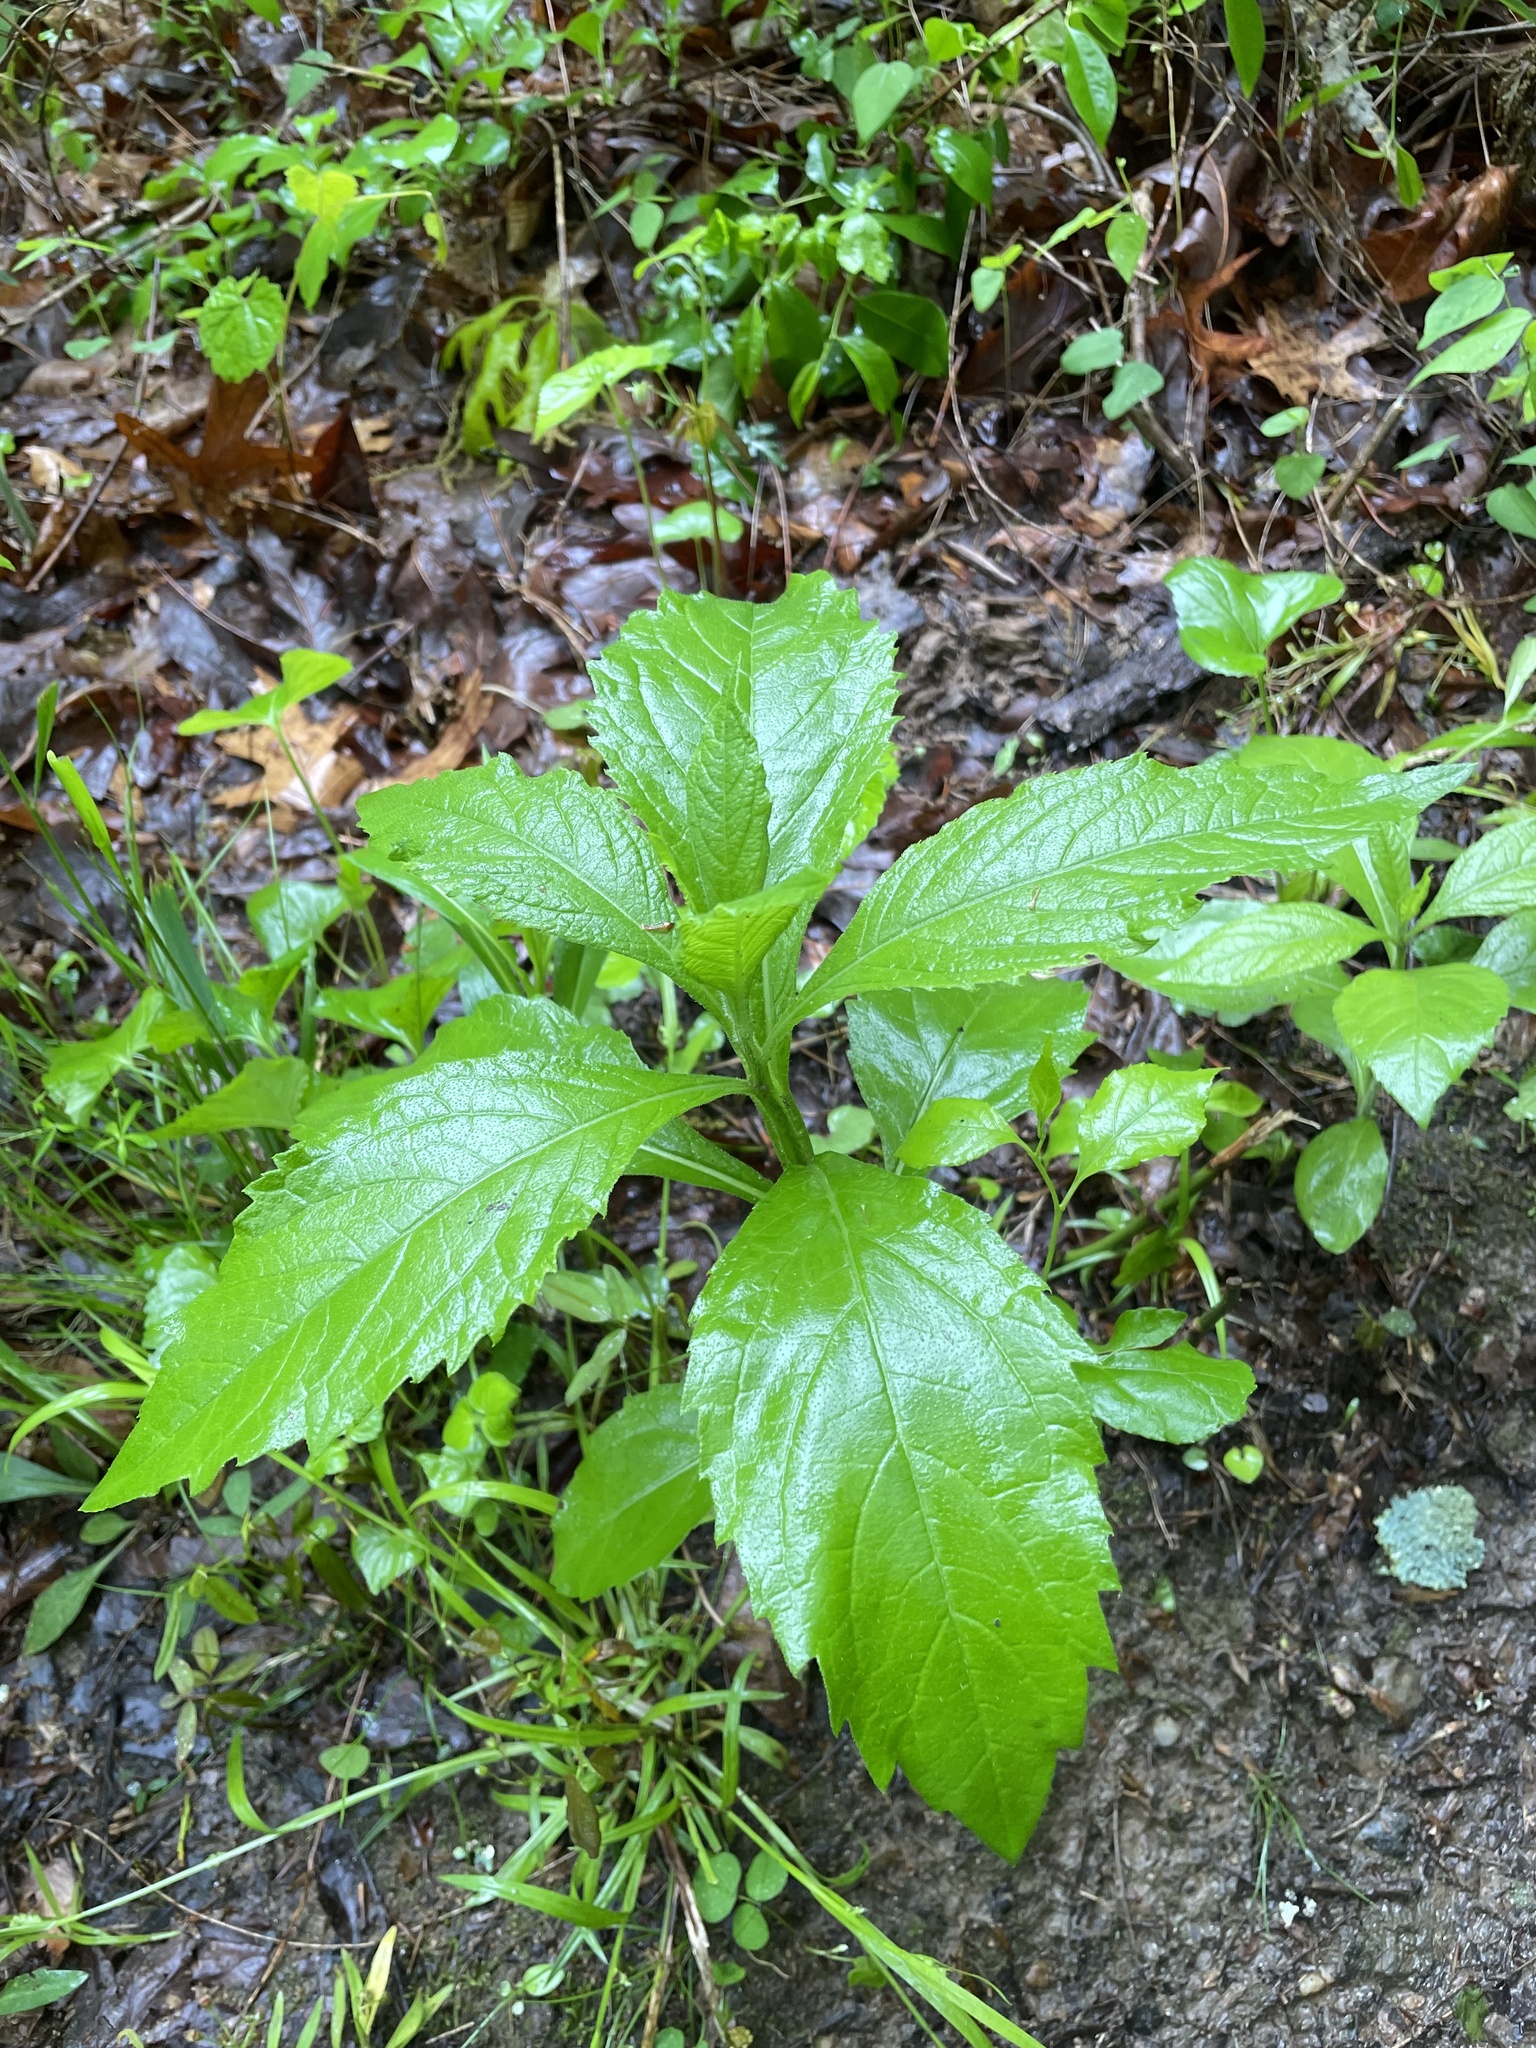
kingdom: Plantae
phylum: Tracheophyta
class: Magnoliopsida
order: Asterales
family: Asteraceae
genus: Verbesina
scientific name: Verbesina alternifolia
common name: Wingstem
